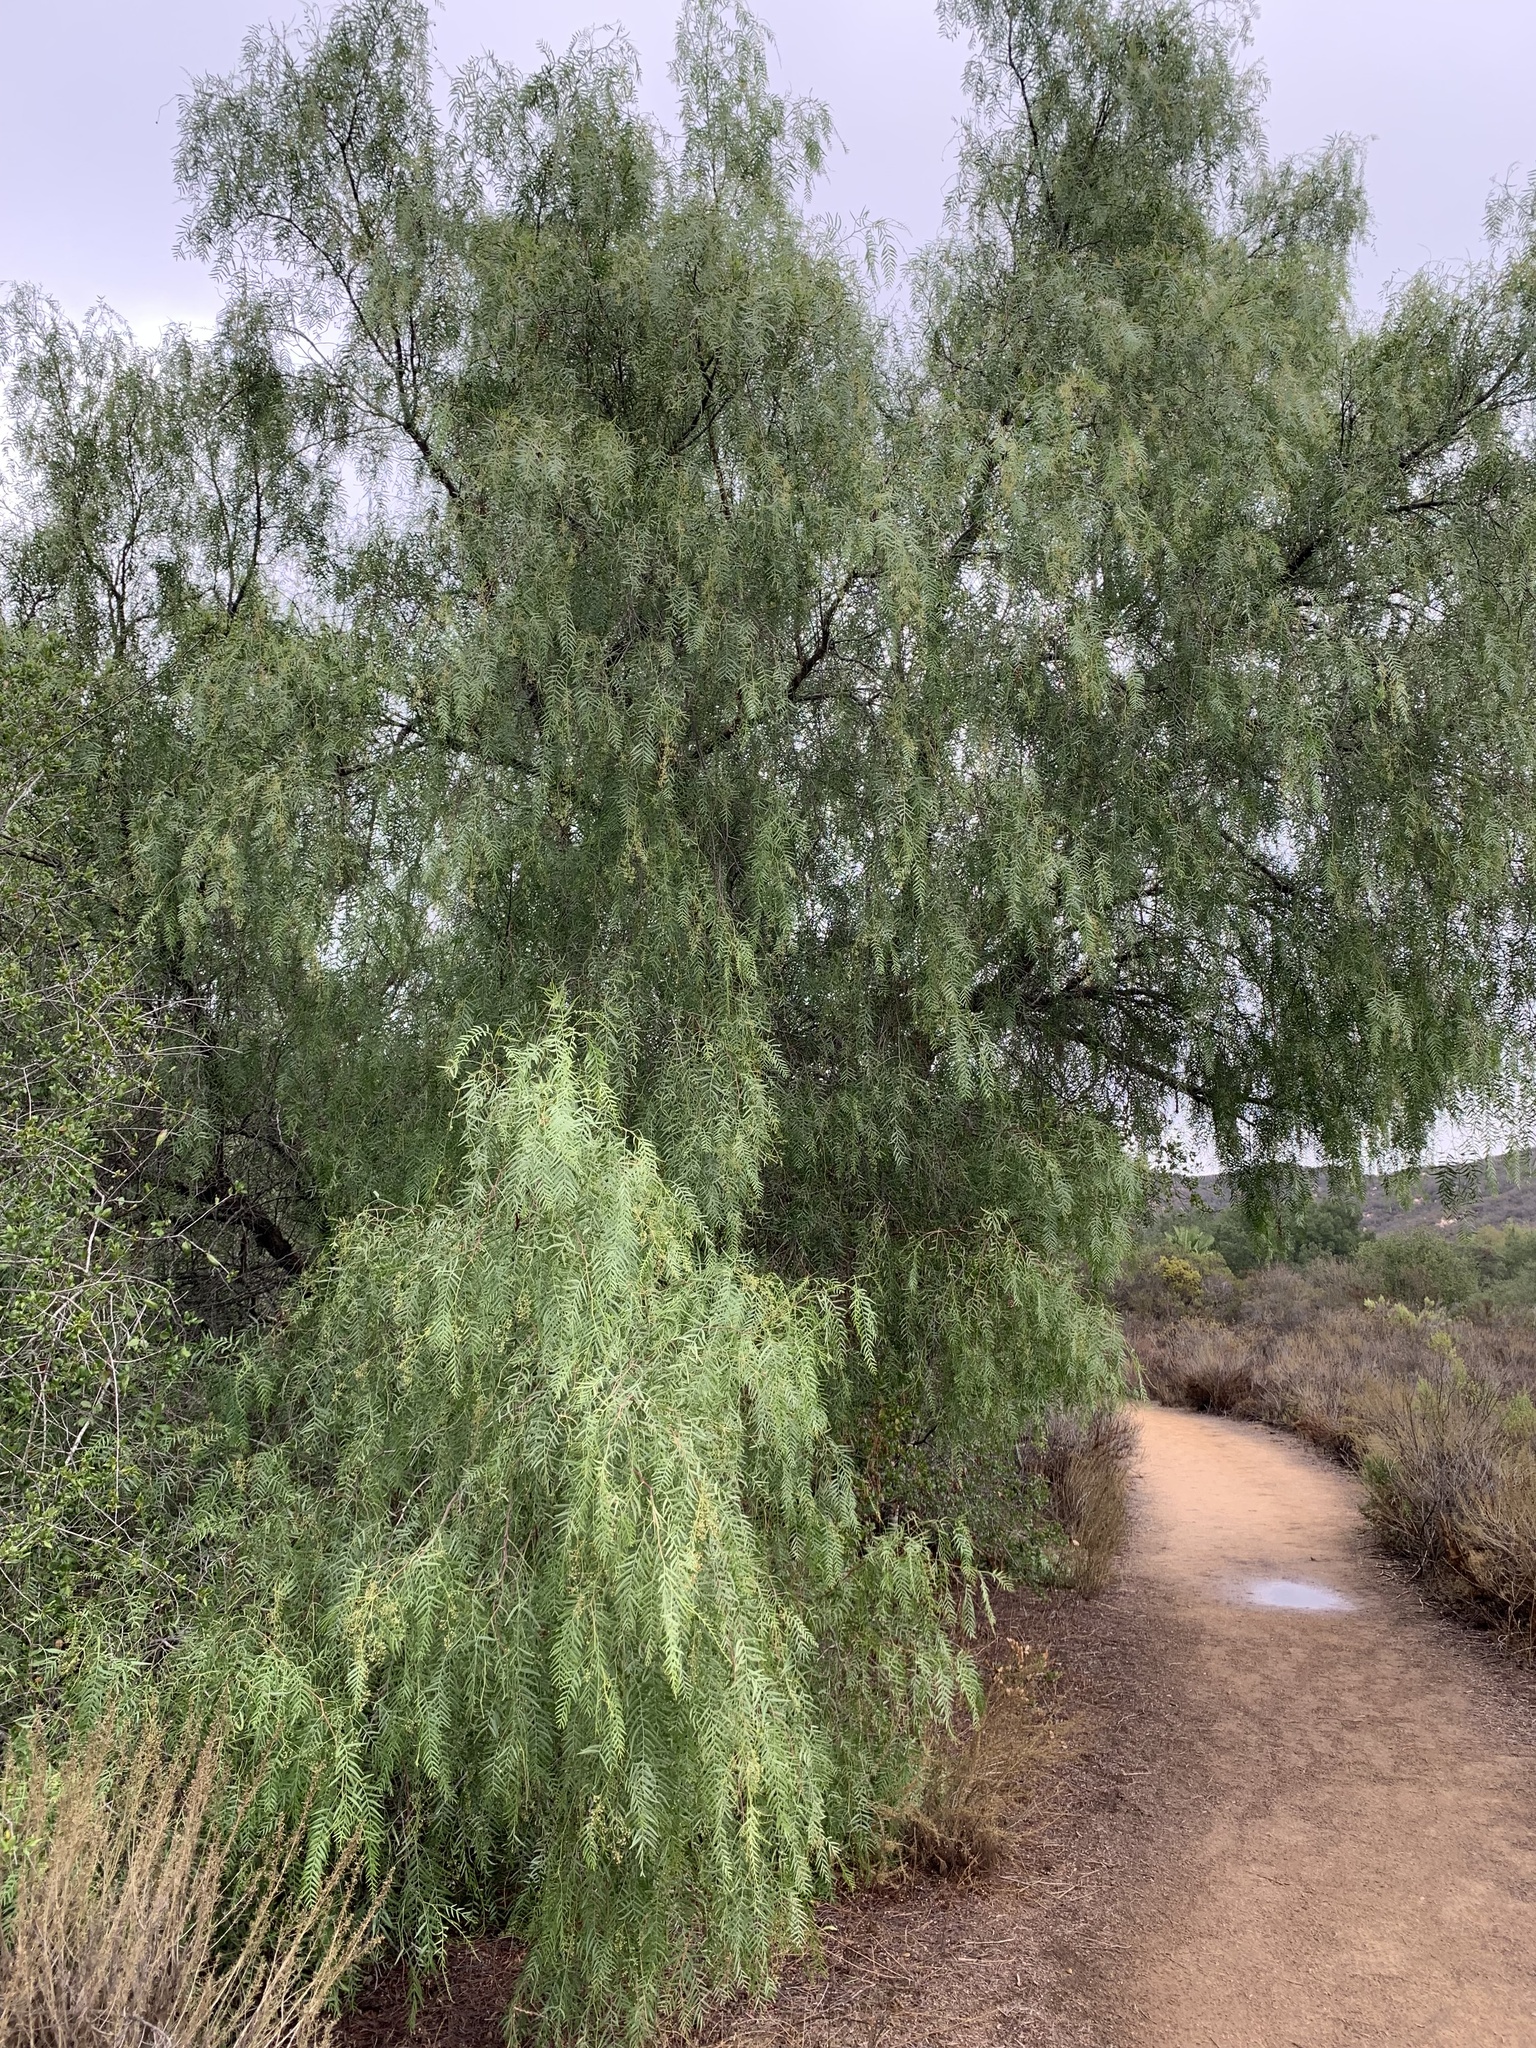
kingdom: Plantae
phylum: Tracheophyta
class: Magnoliopsida
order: Sapindales
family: Anacardiaceae
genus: Schinus
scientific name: Schinus molle
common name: Peruvian peppertree
